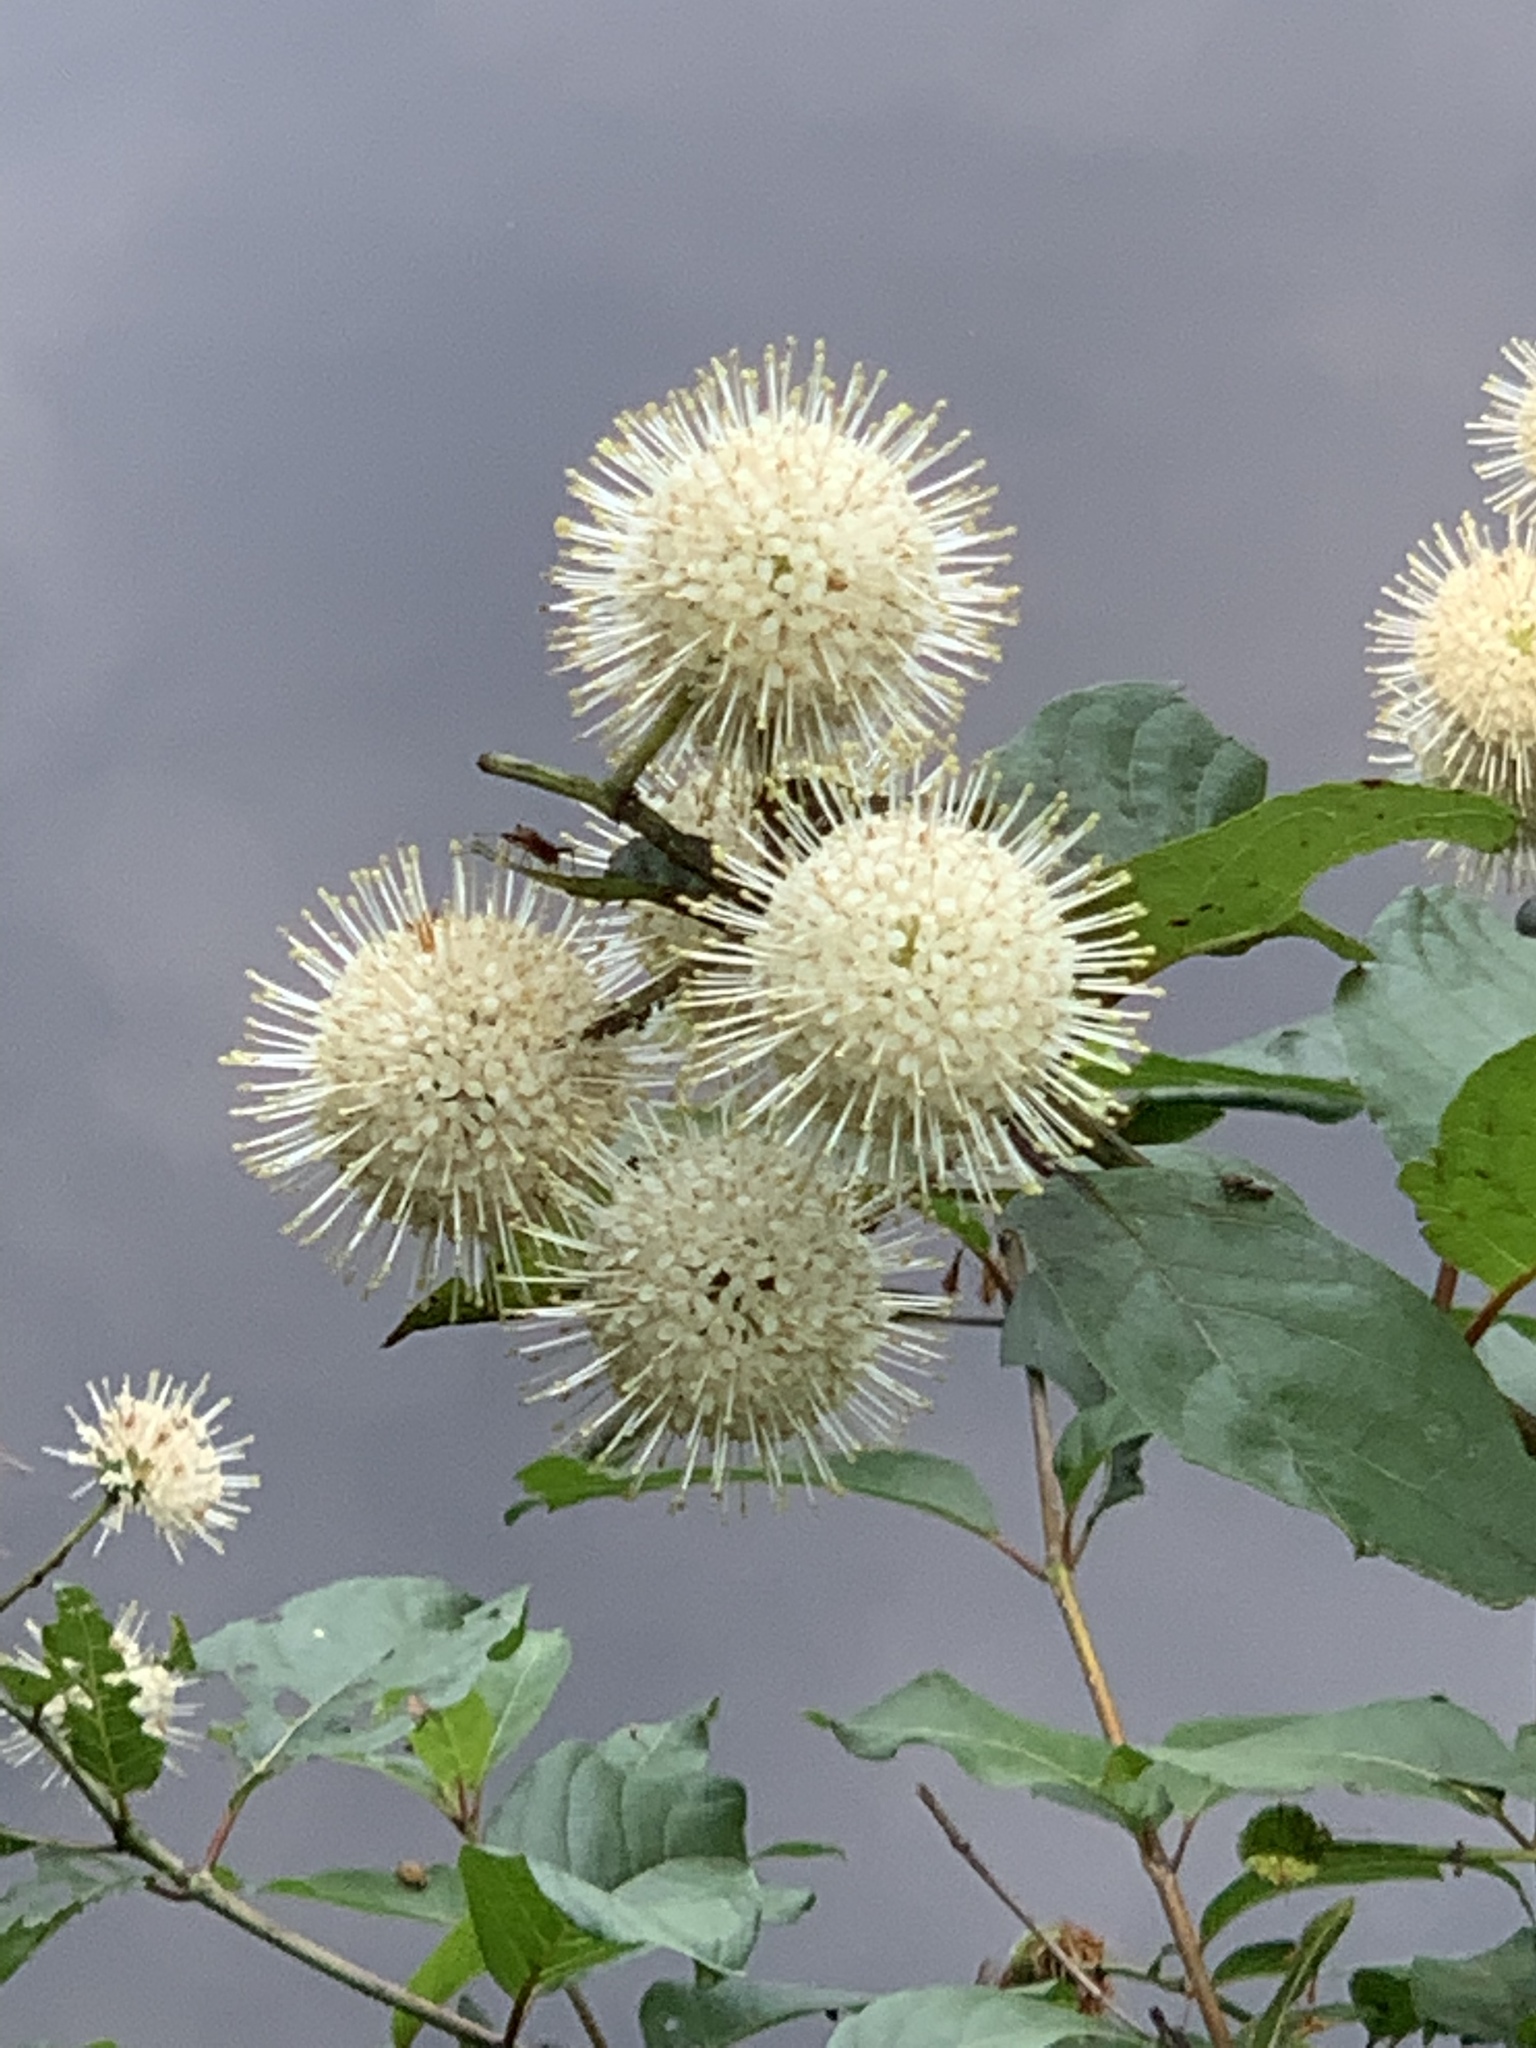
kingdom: Plantae
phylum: Tracheophyta
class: Magnoliopsida
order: Gentianales
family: Rubiaceae
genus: Cephalanthus
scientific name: Cephalanthus occidentalis
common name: Button-willow
